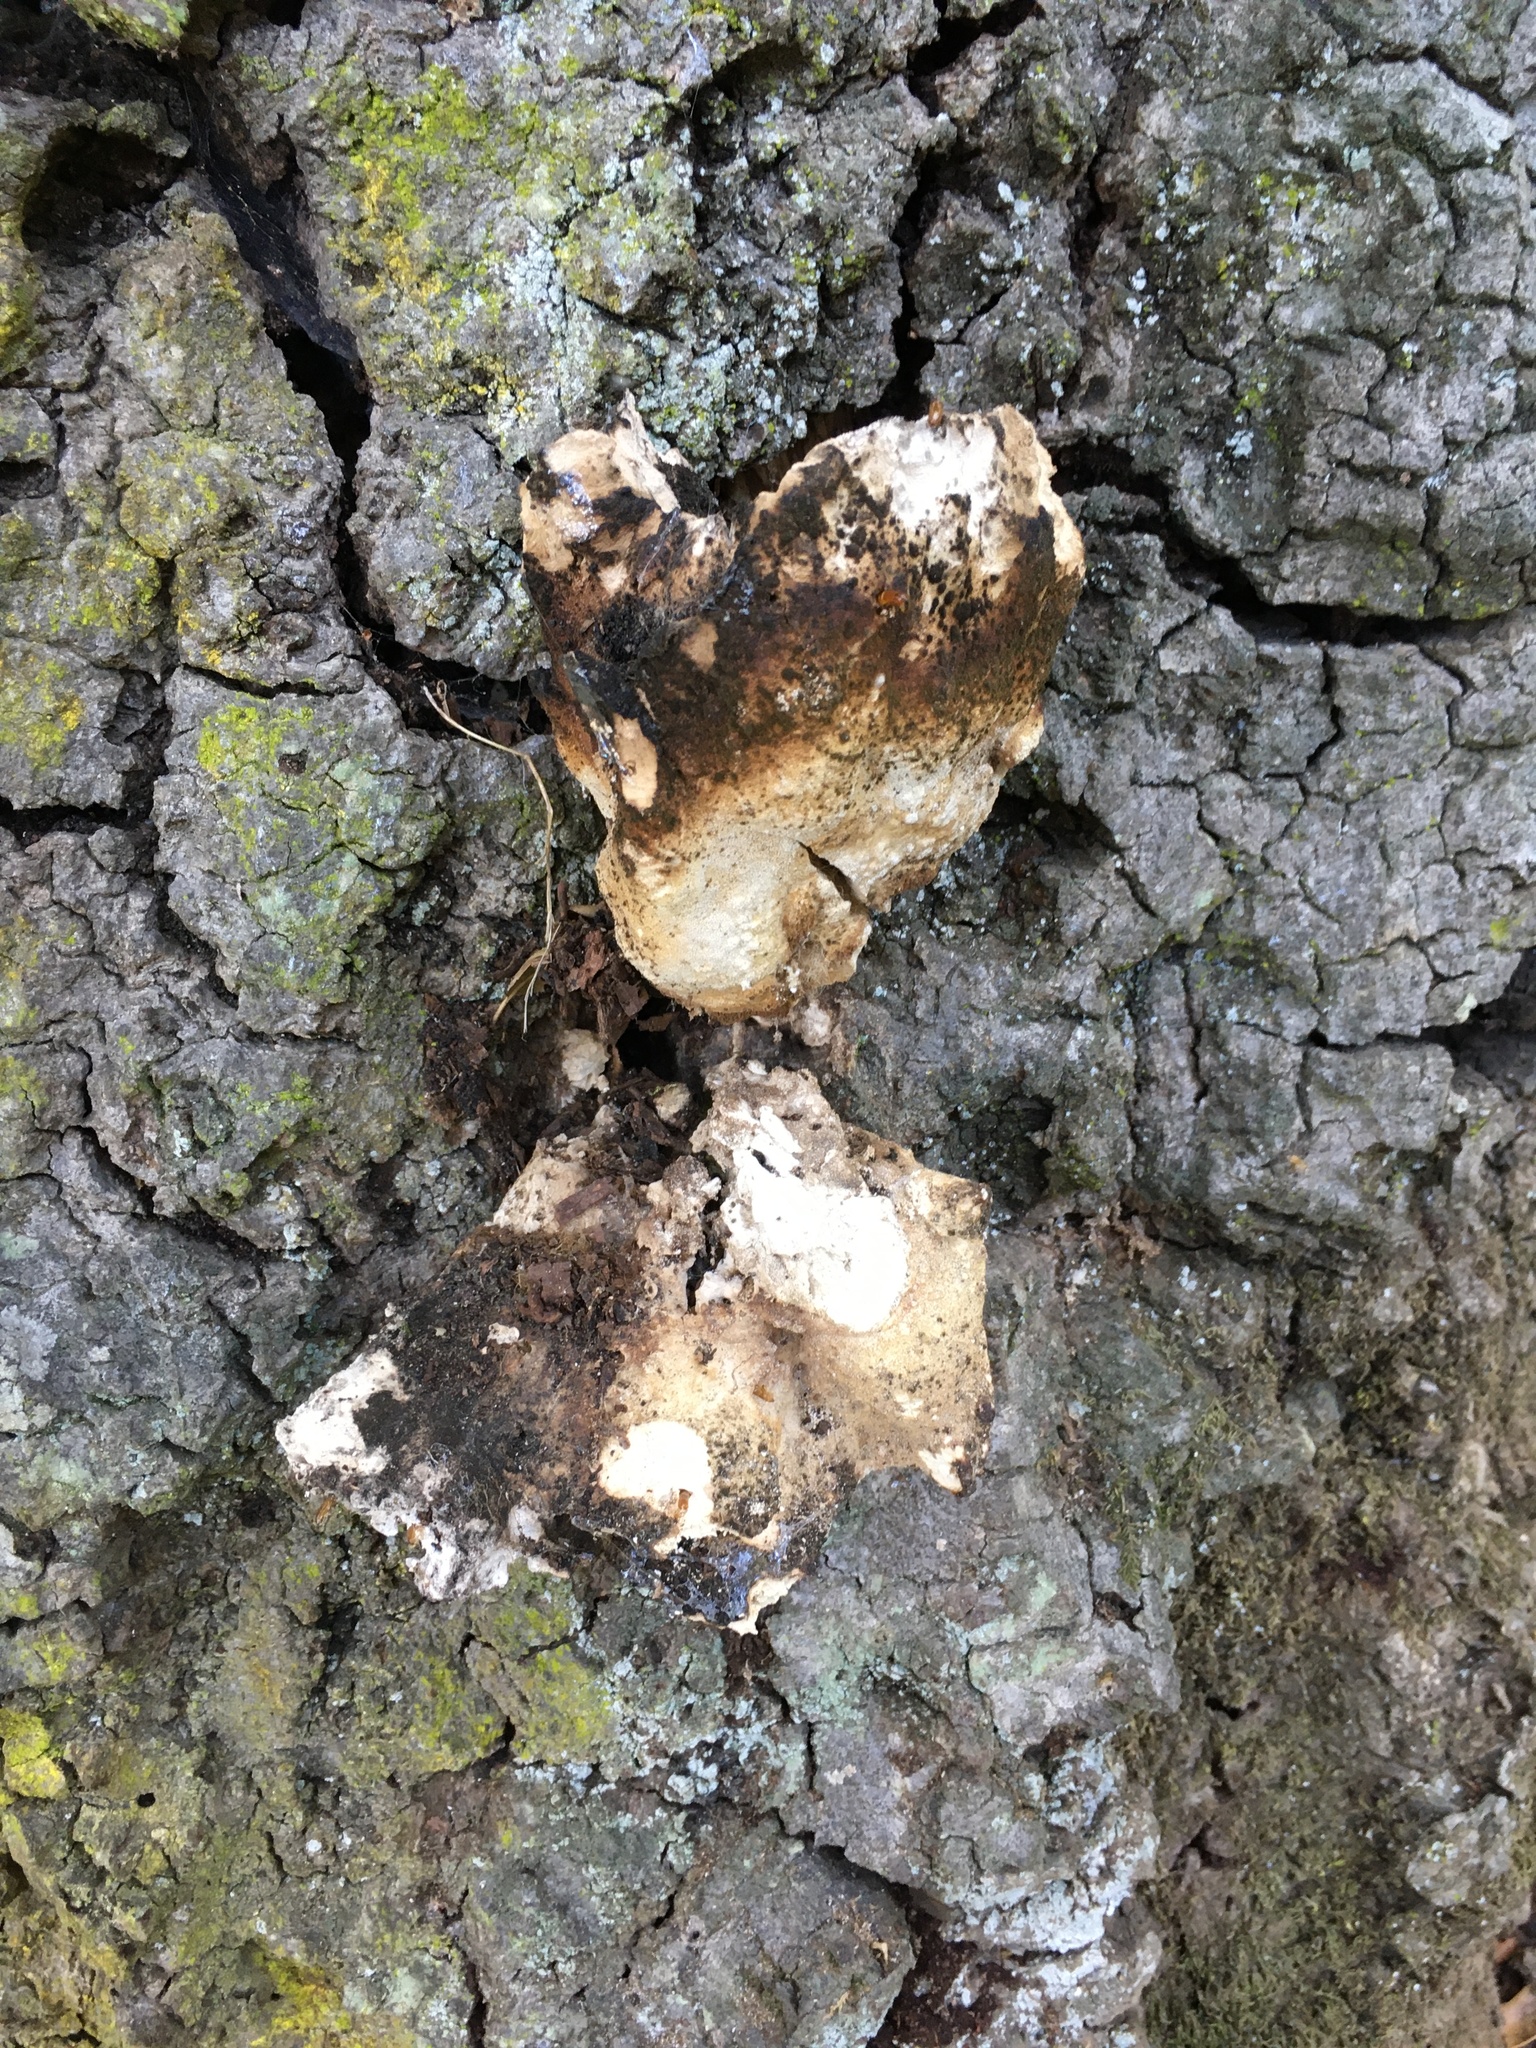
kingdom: Fungi
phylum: Basidiomycota
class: Agaricomycetes
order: Polyporales
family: Laetiporaceae
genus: Laetiporus
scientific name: Laetiporus gilbertsonii
